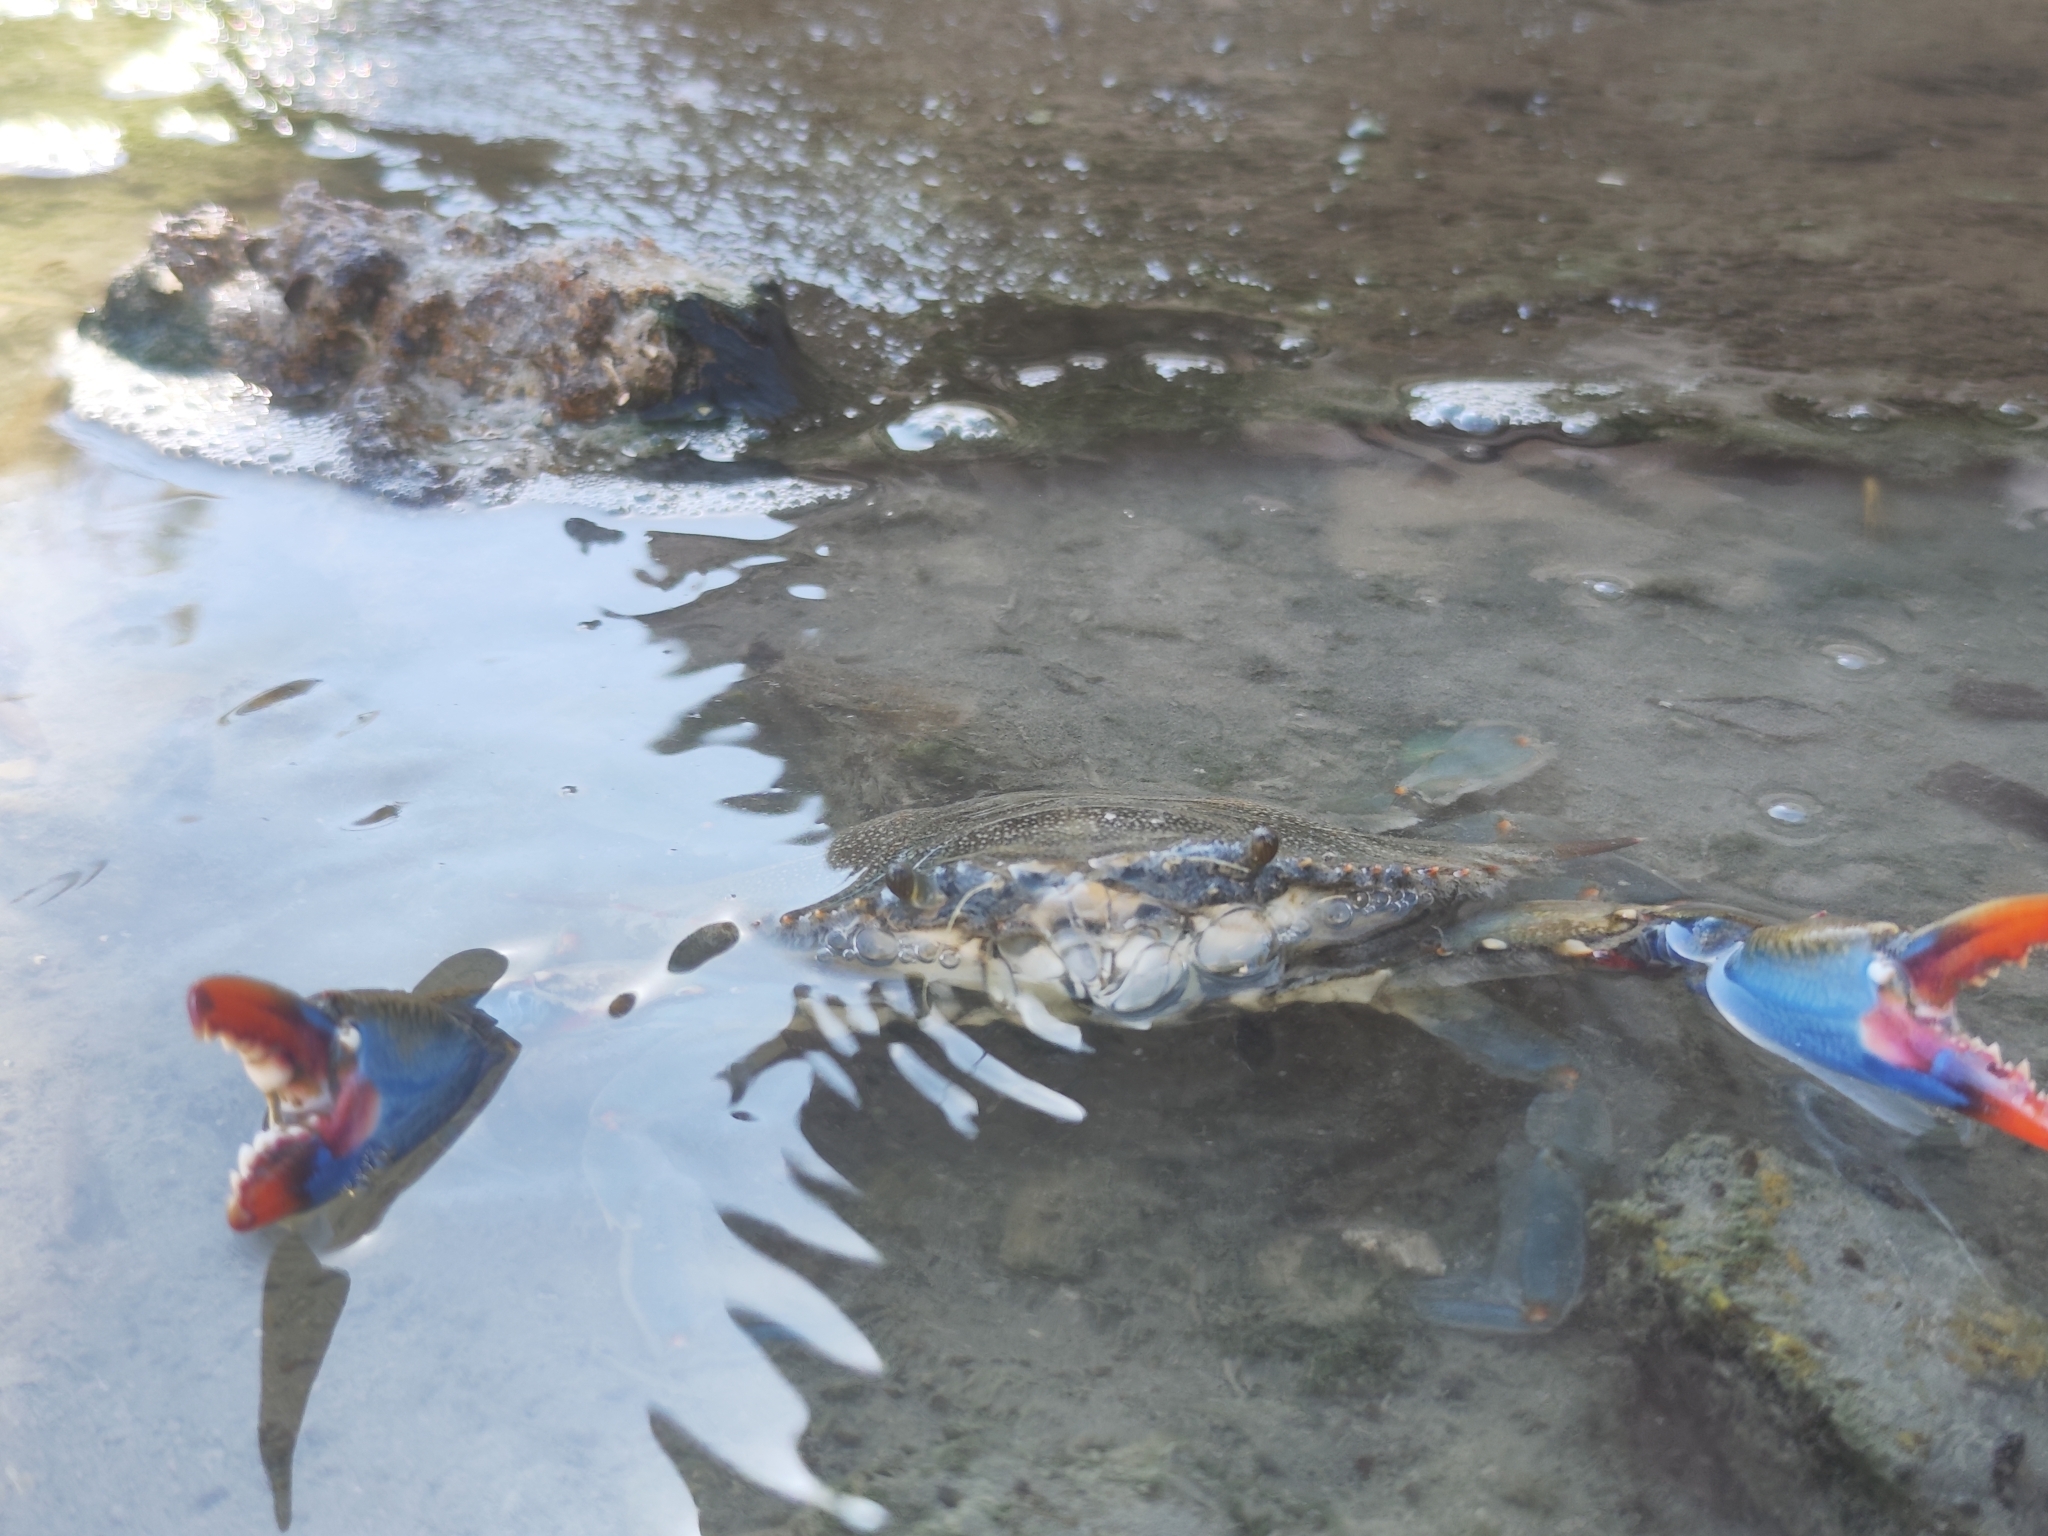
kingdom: Animalia
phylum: Arthropoda
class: Malacostraca
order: Decapoda
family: Portunidae
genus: Callinectes
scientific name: Callinectes sapidus
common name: Blue crab
